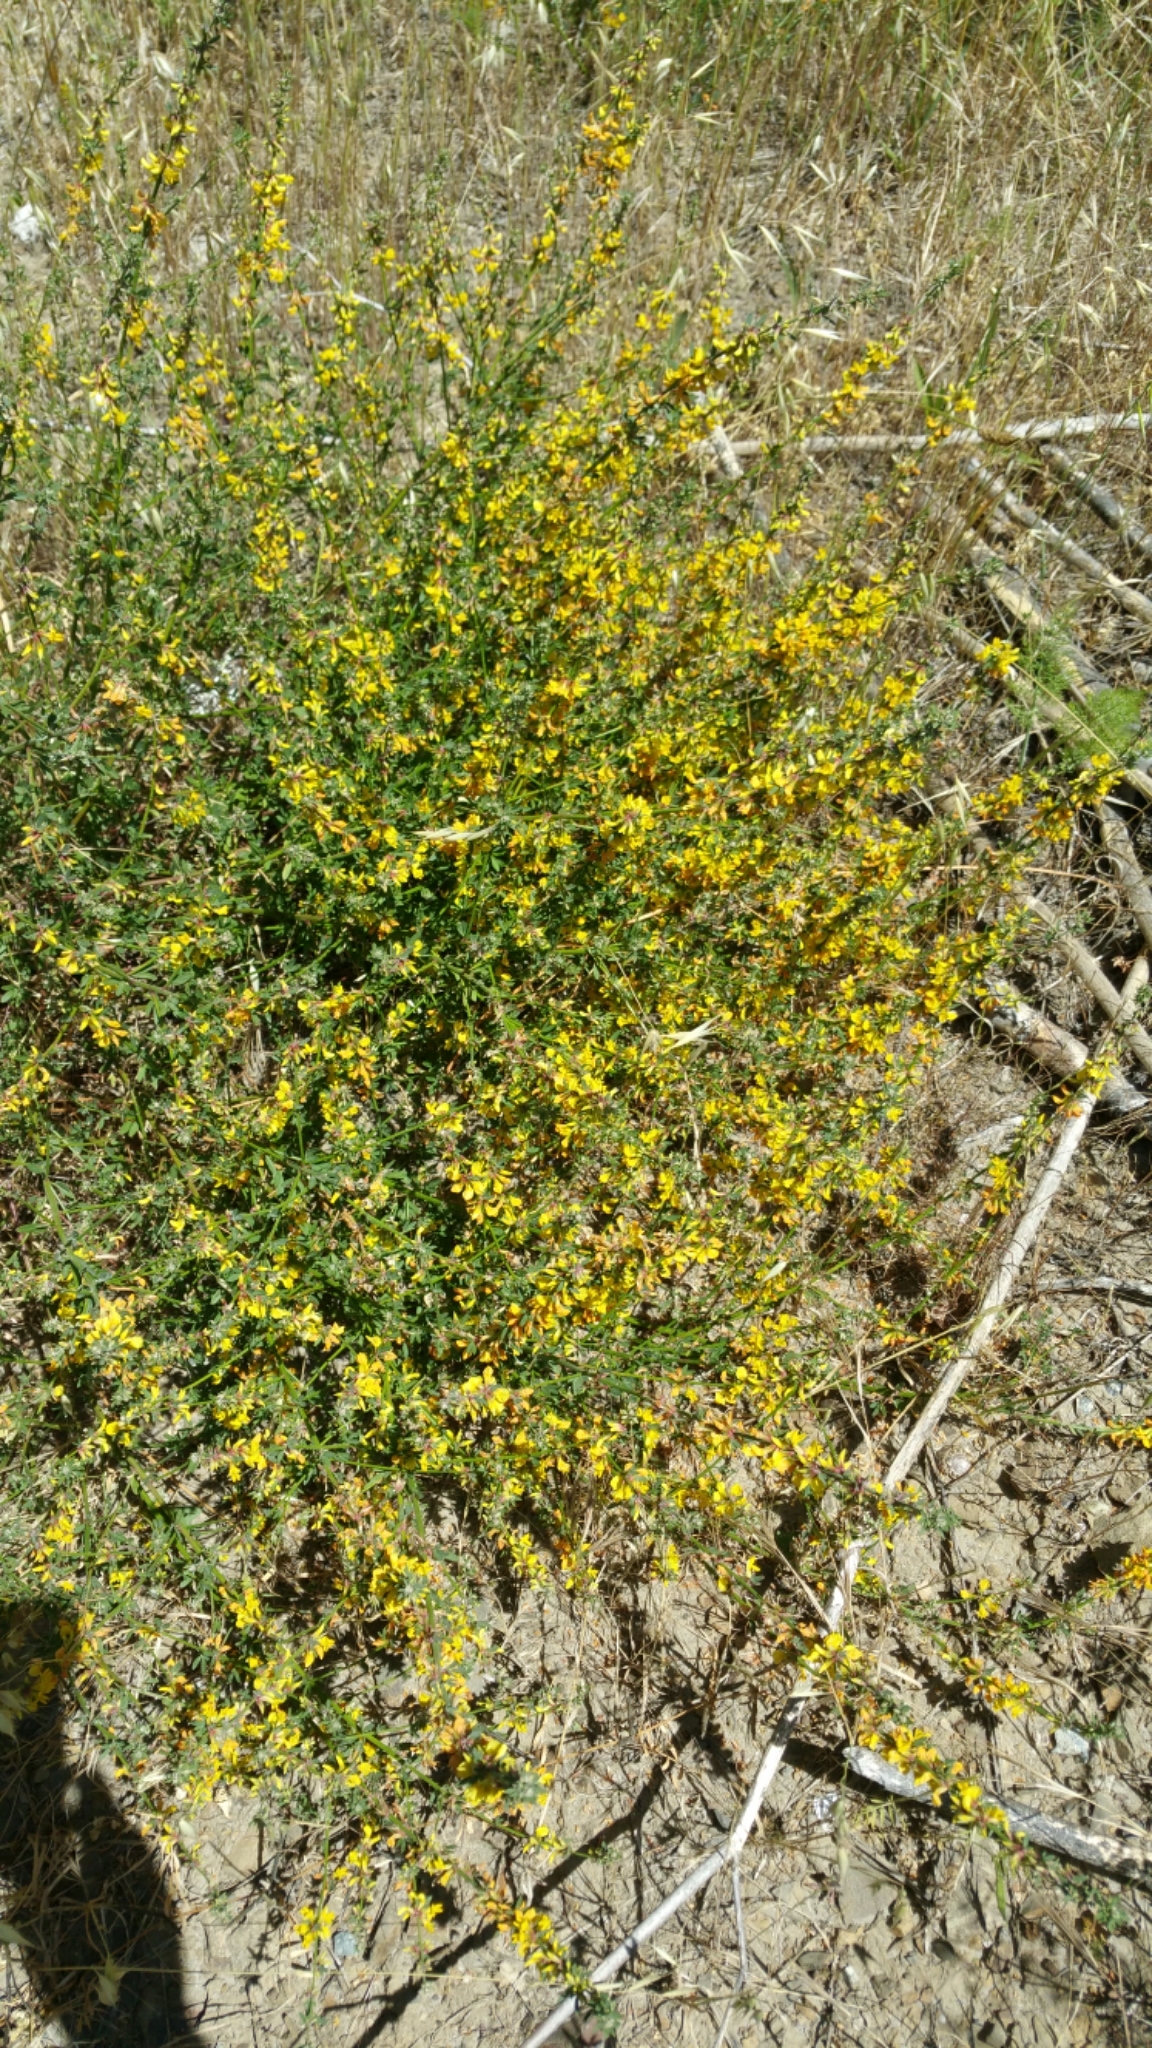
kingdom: Plantae
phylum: Tracheophyta
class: Magnoliopsida
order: Fabales
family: Fabaceae
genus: Acmispon
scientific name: Acmispon glaber
